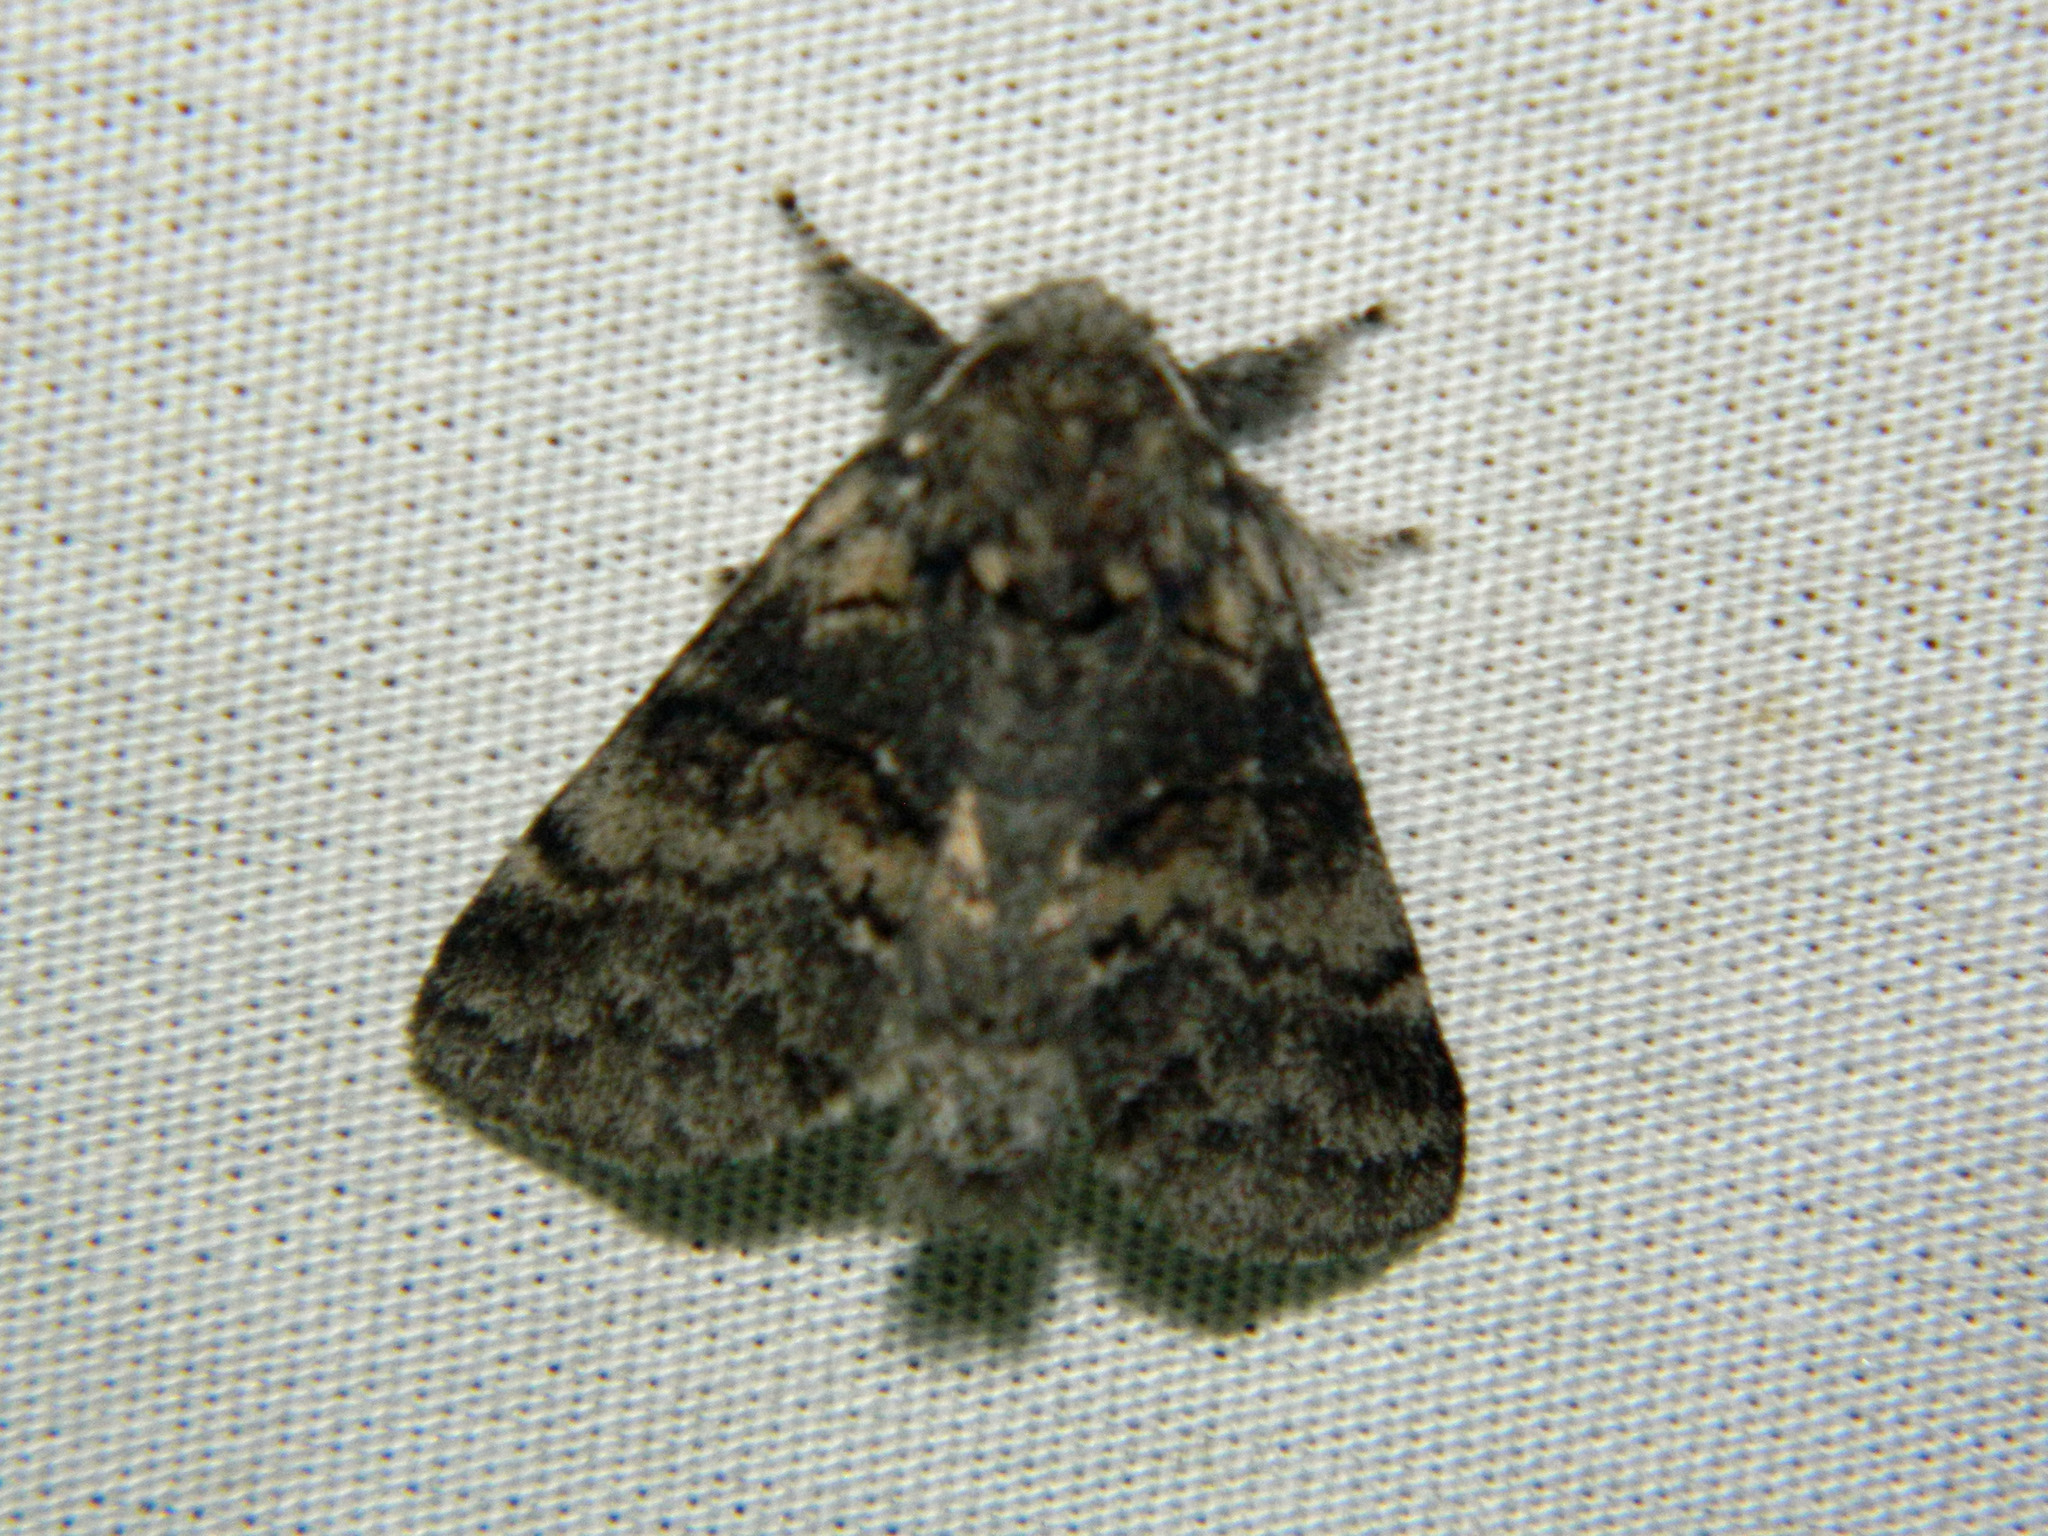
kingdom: Animalia
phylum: Arthropoda
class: Insecta
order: Lepidoptera
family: Notodontidae
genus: Gluphisia
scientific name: Gluphisia septentrionis
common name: Common gluphisia
